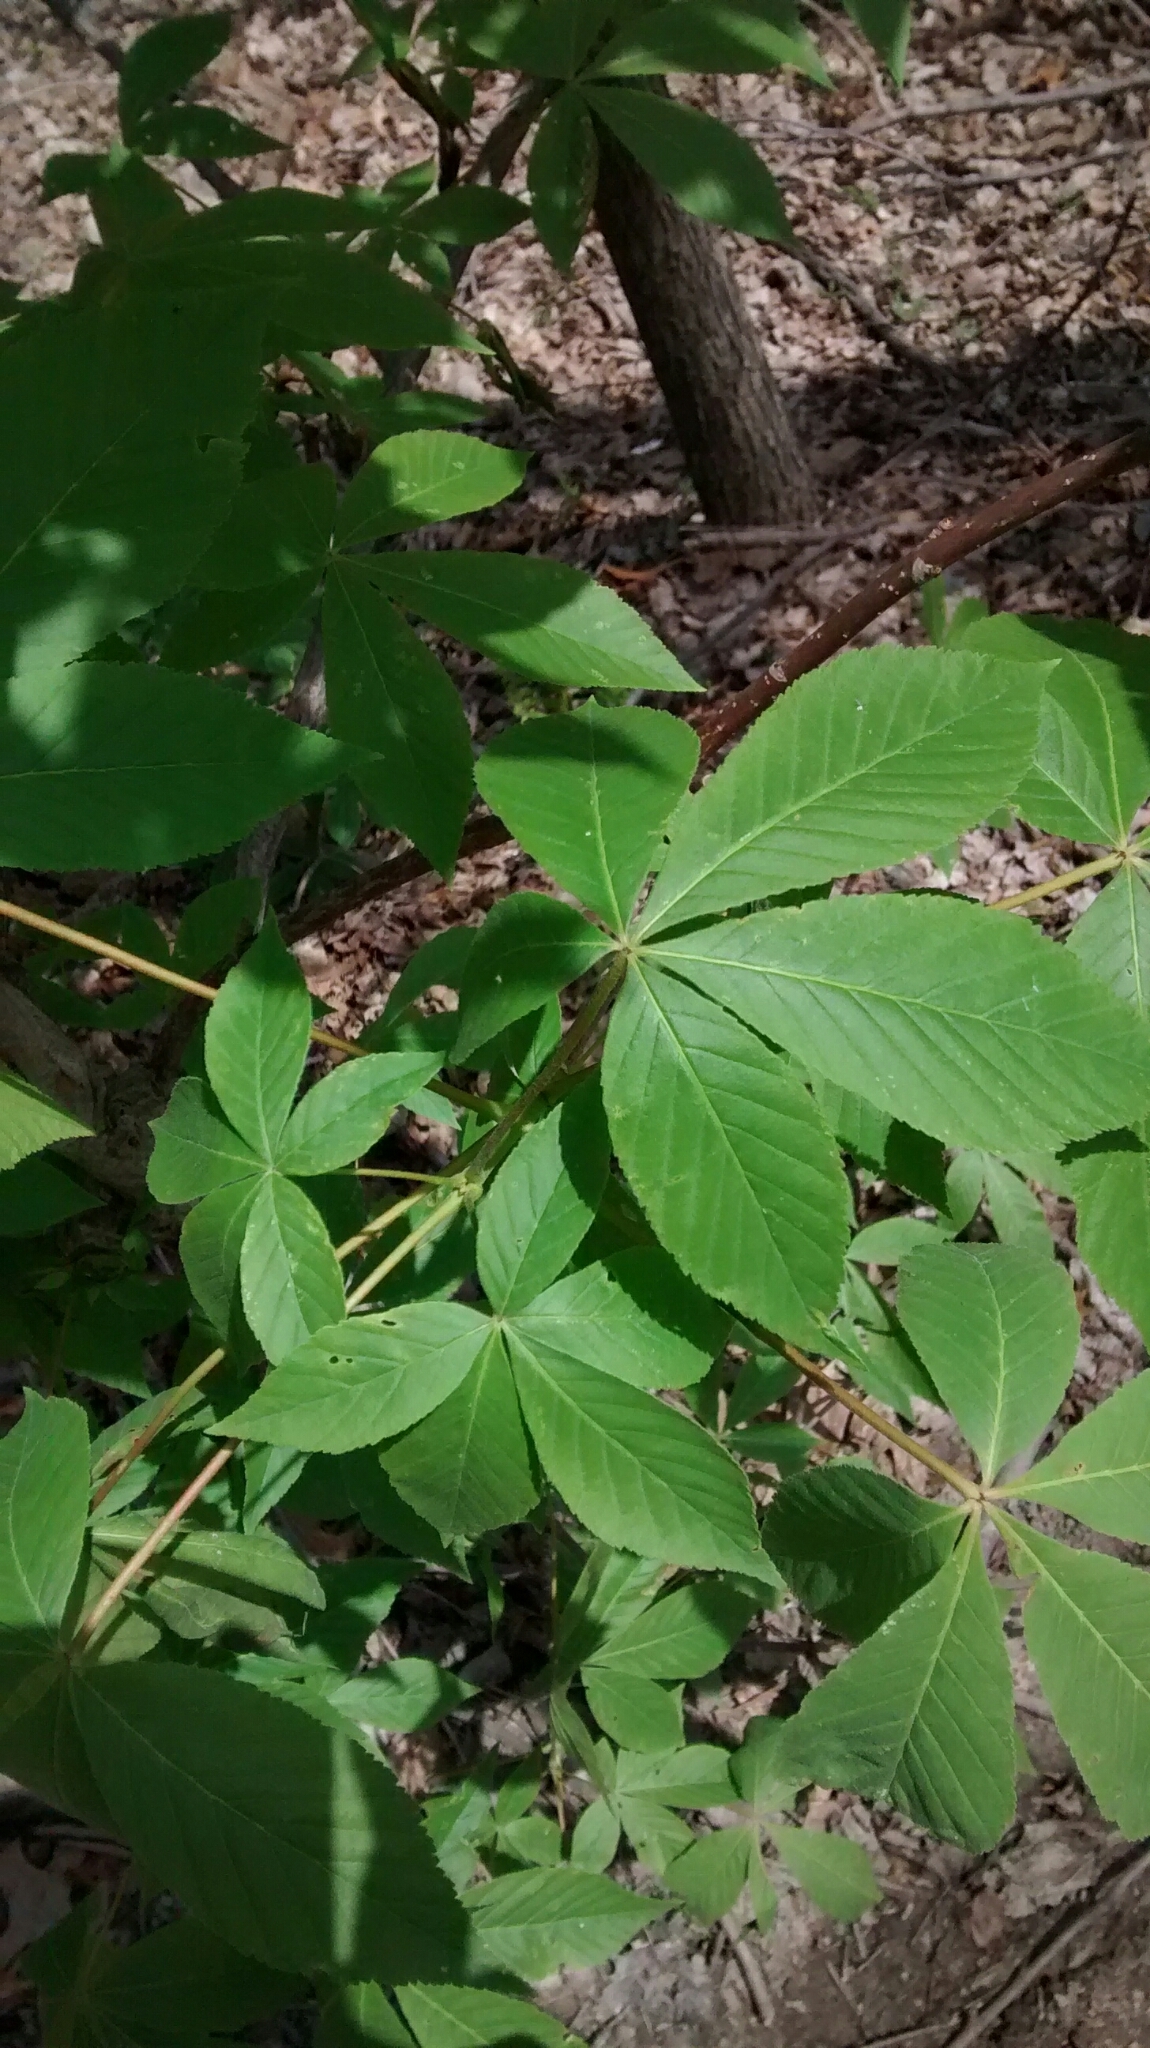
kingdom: Plantae
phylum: Tracheophyta
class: Magnoliopsida
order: Sapindales
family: Sapindaceae
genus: Aesculus
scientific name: Aesculus glabra
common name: Ohio buckeye
